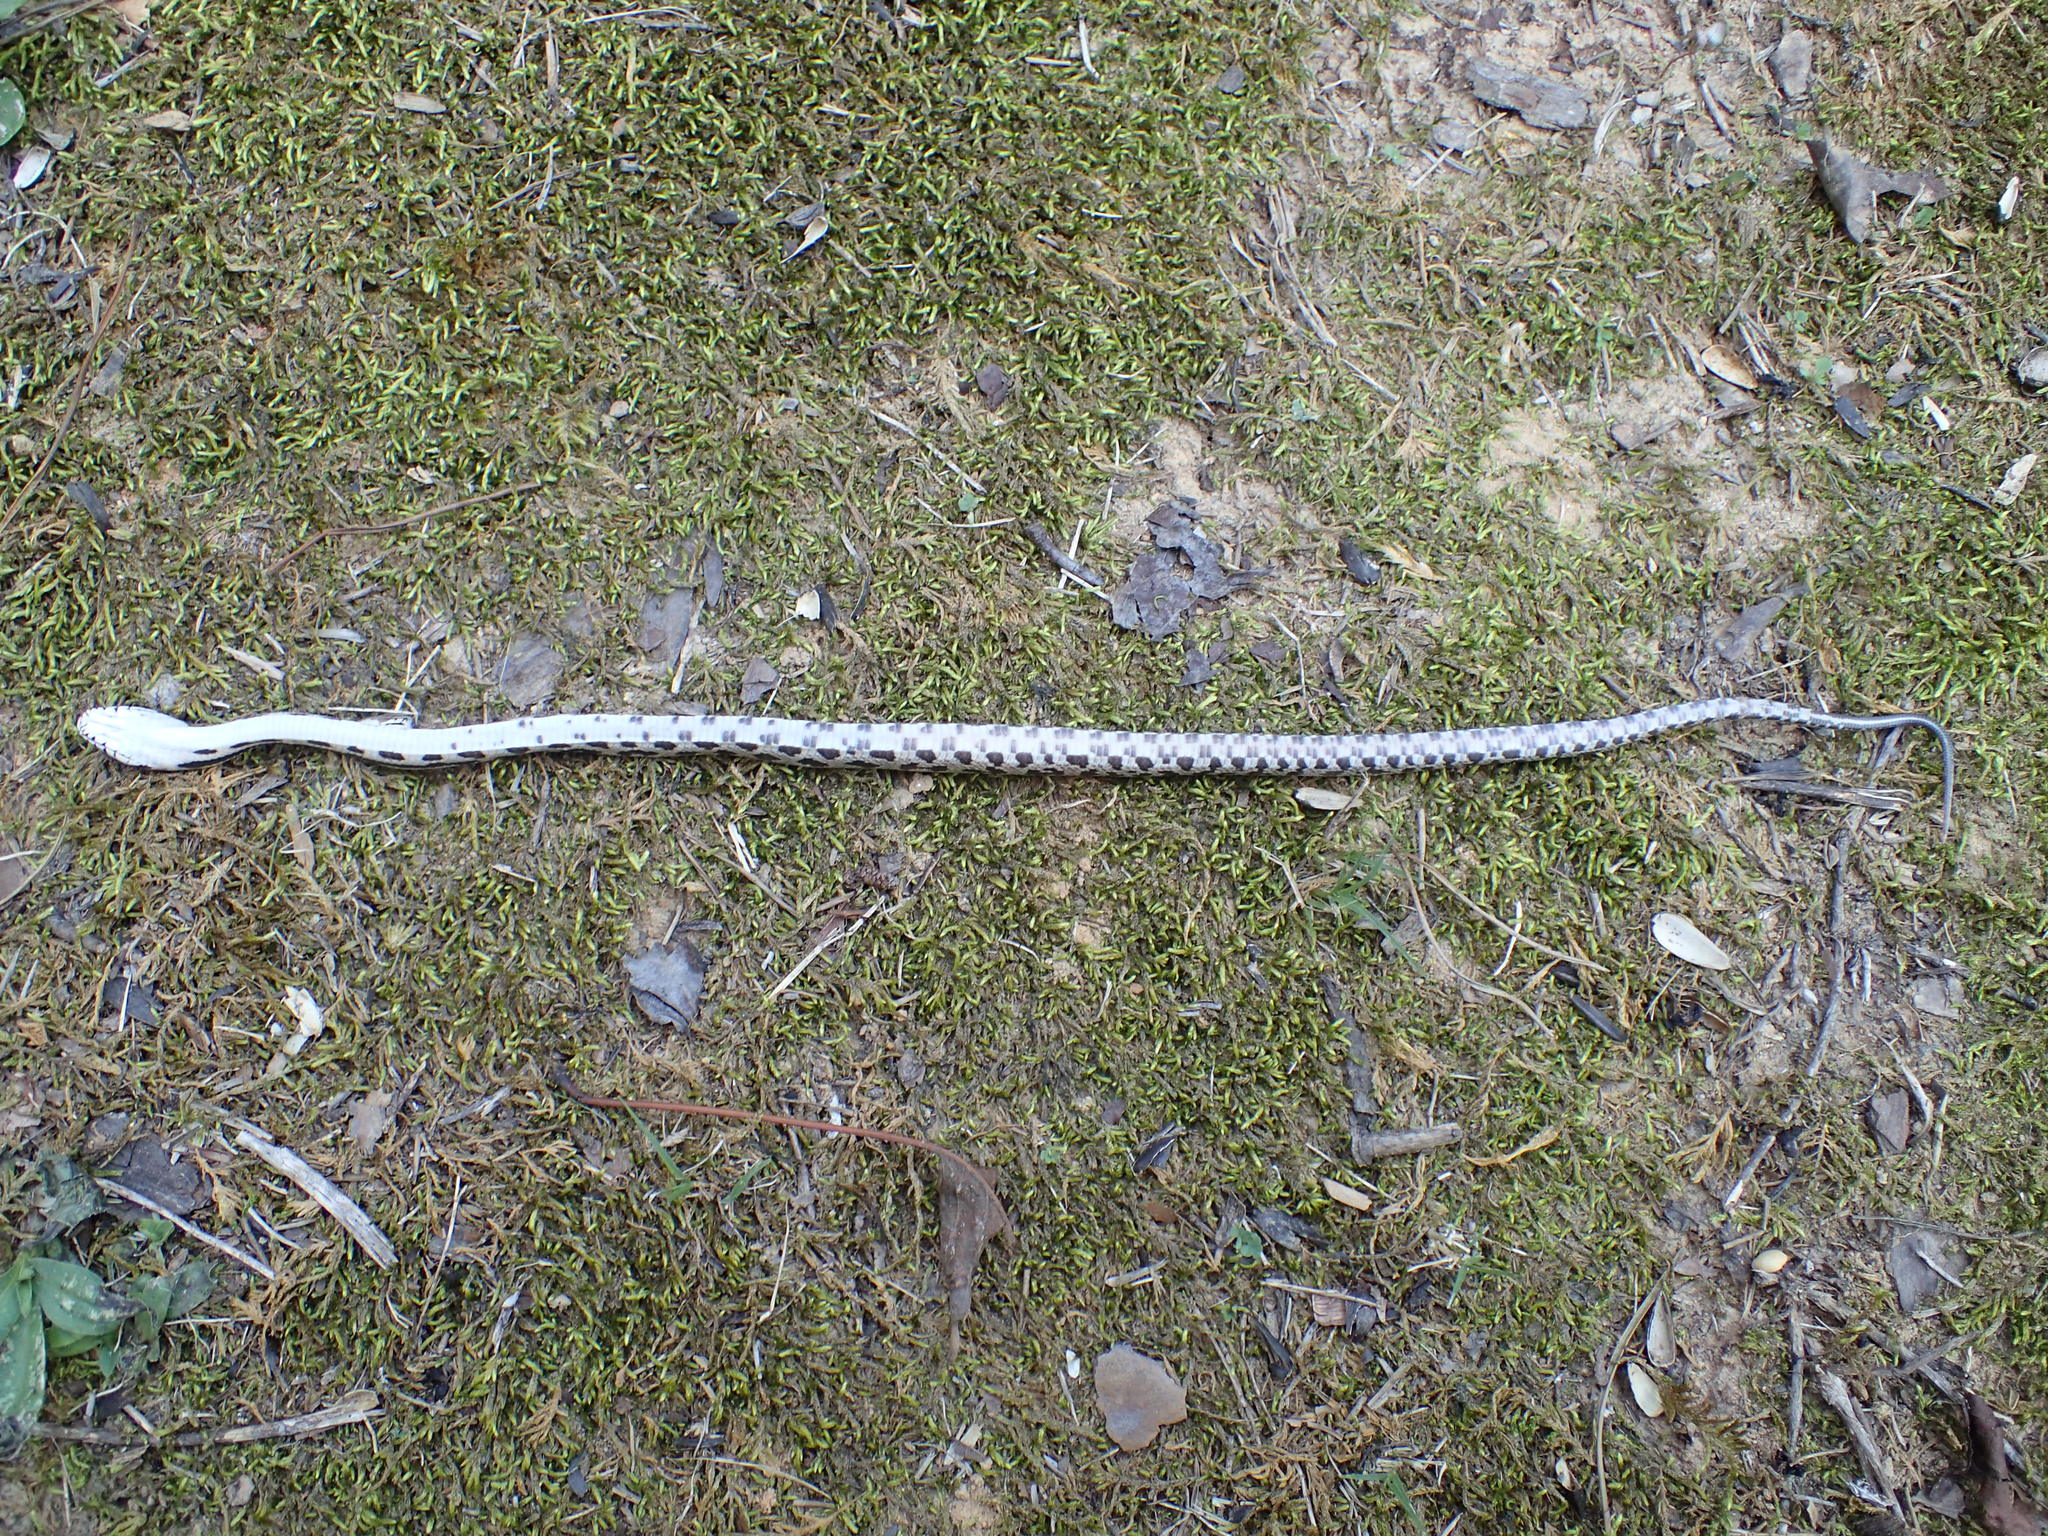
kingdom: Animalia
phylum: Chordata
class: Squamata
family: Colubridae
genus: Pantherophis
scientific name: Pantherophis spiloides
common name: Gray rat snake
